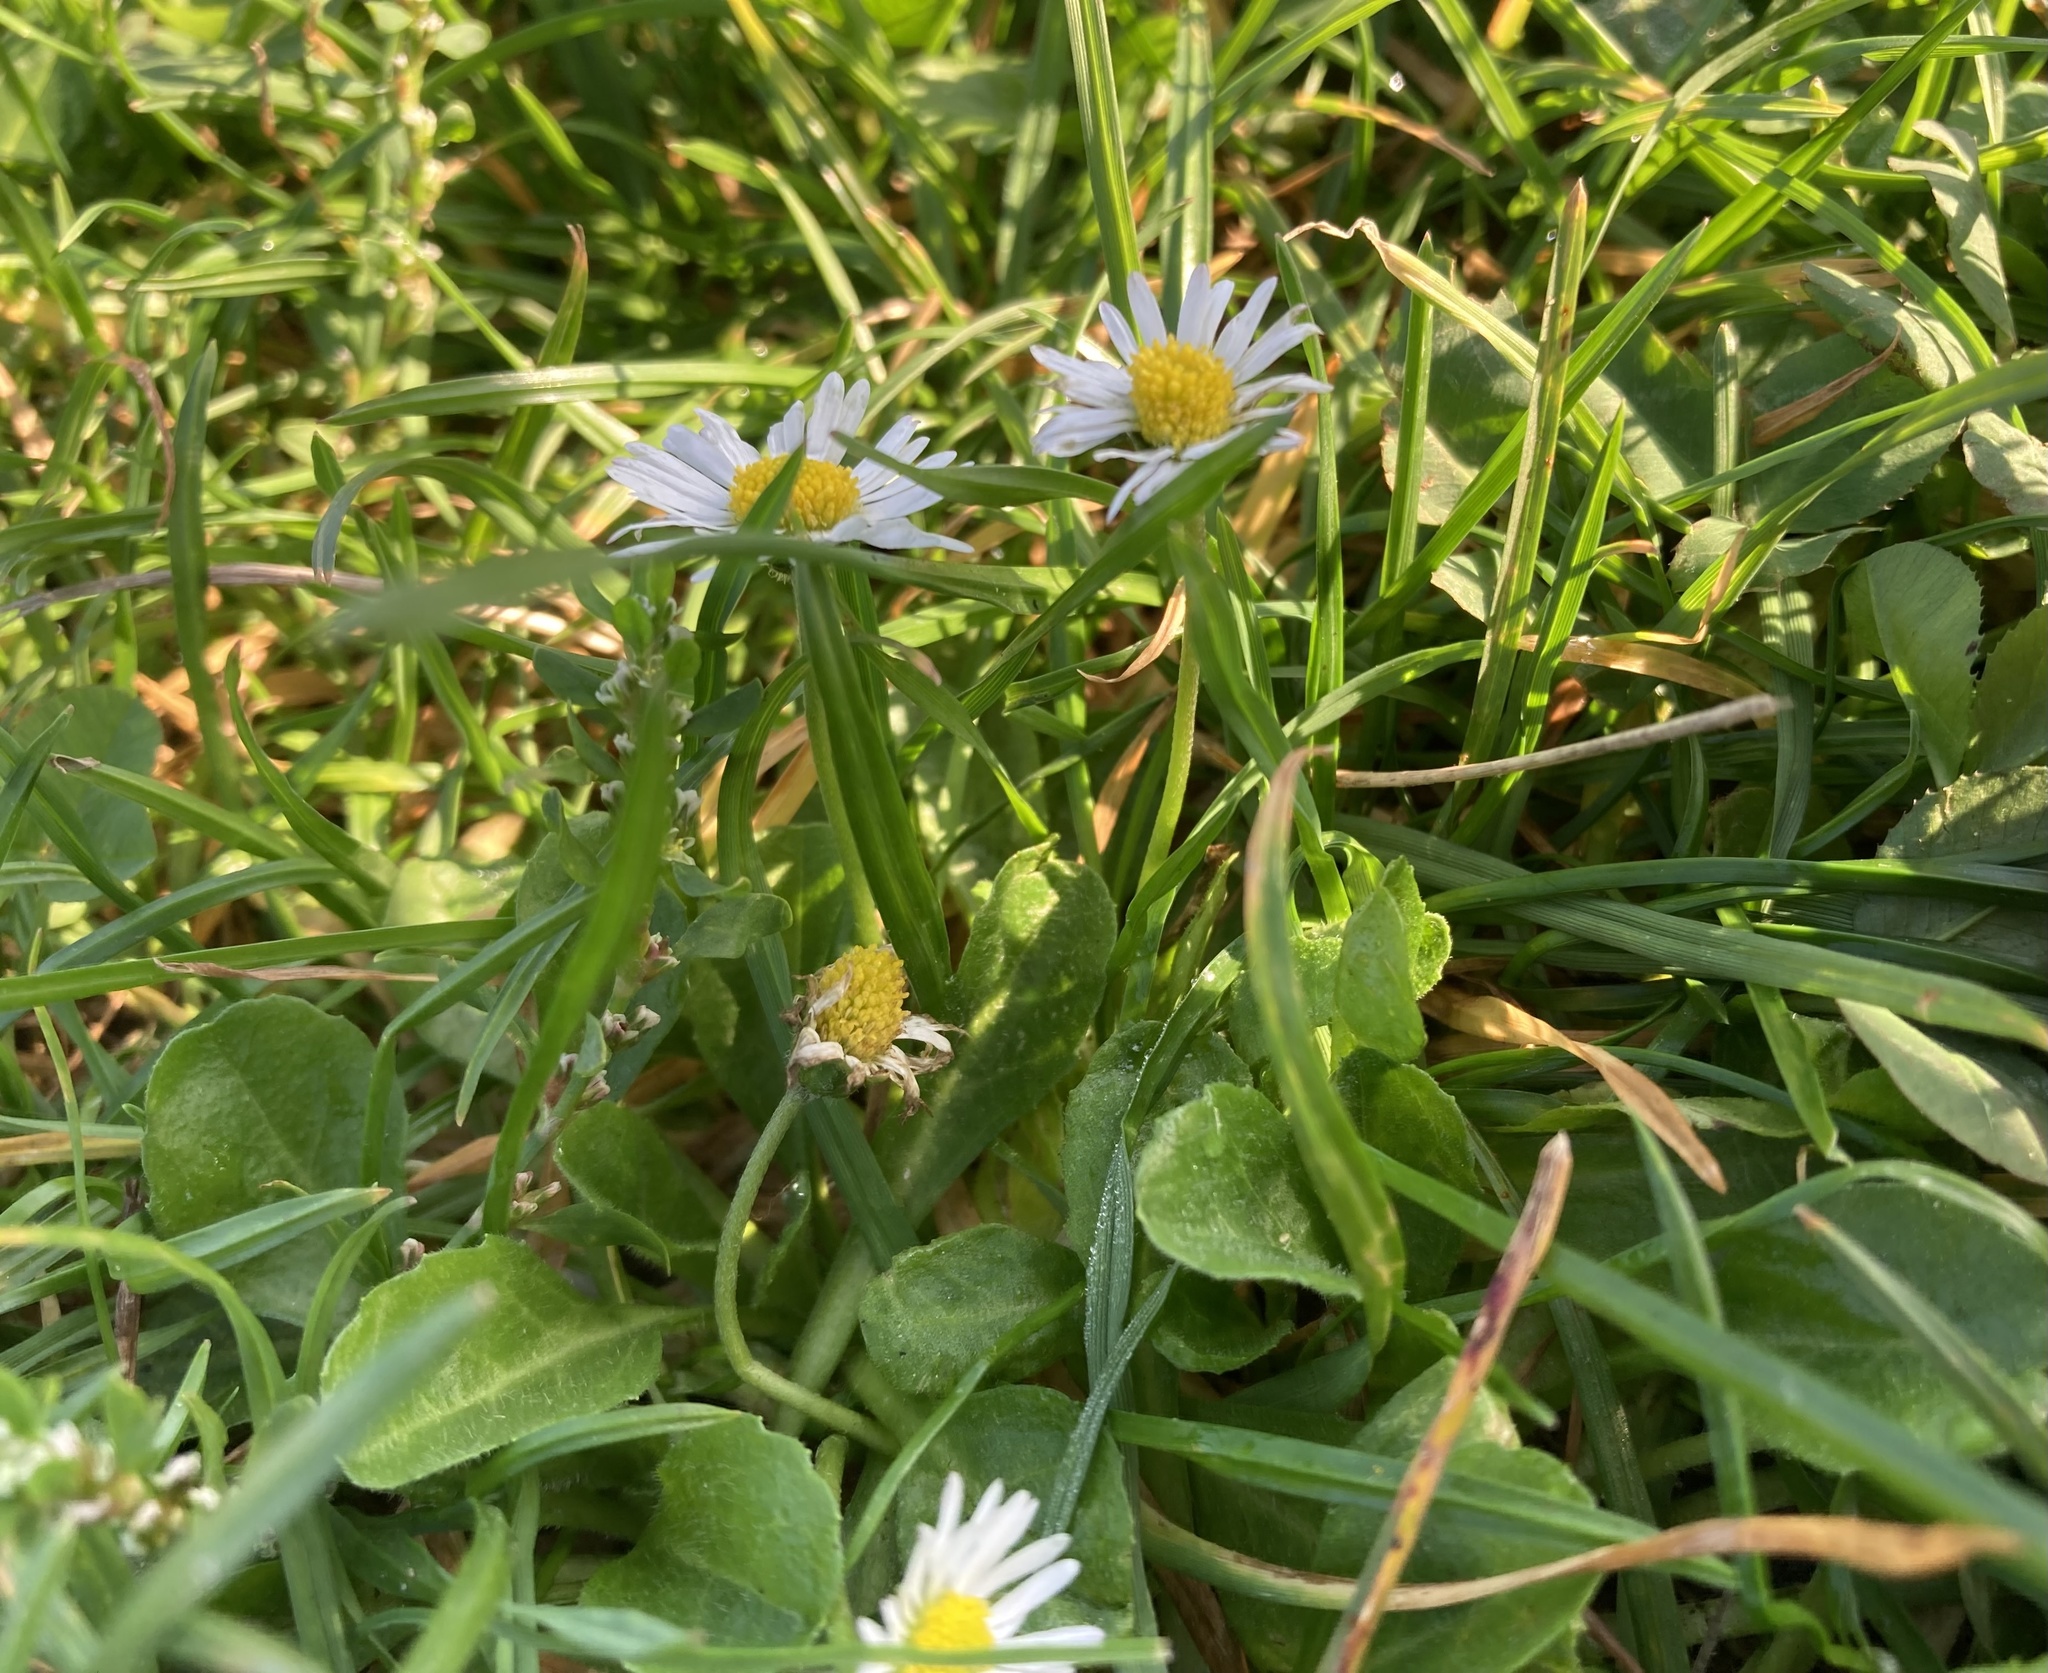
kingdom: Plantae
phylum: Tracheophyta
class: Magnoliopsida
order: Asterales
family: Asteraceae
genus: Bellis
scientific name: Bellis perennis
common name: Lawndaisy
